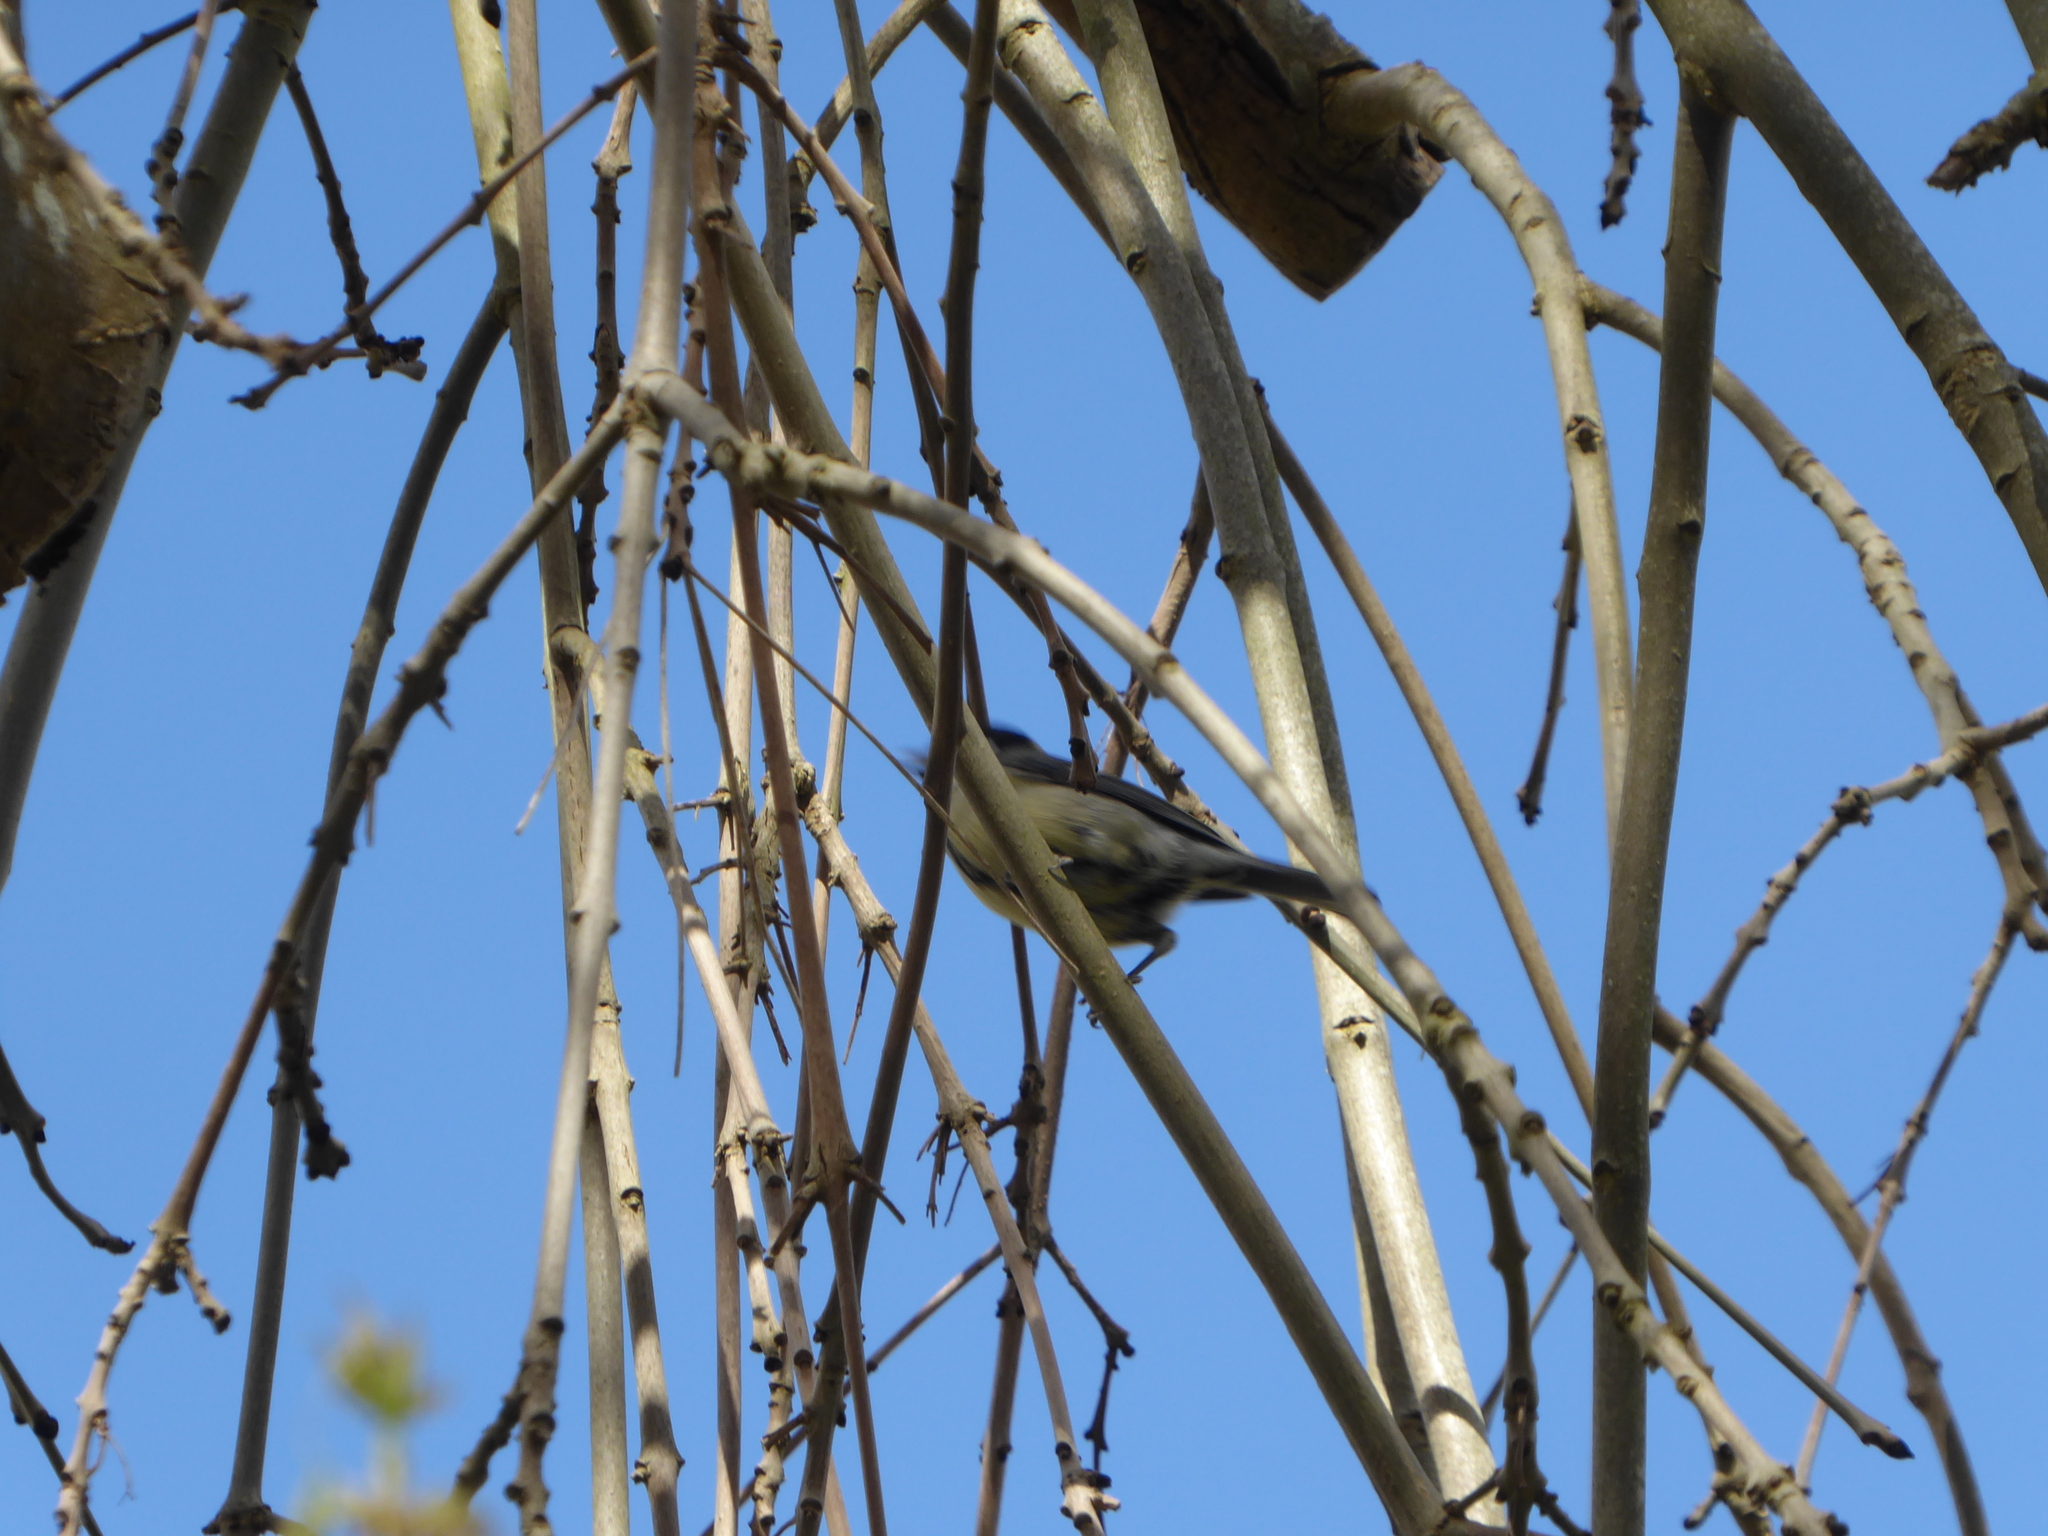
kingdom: Animalia
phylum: Chordata
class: Aves
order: Passeriformes
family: Paridae
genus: Parus
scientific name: Parus major
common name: Great tit
